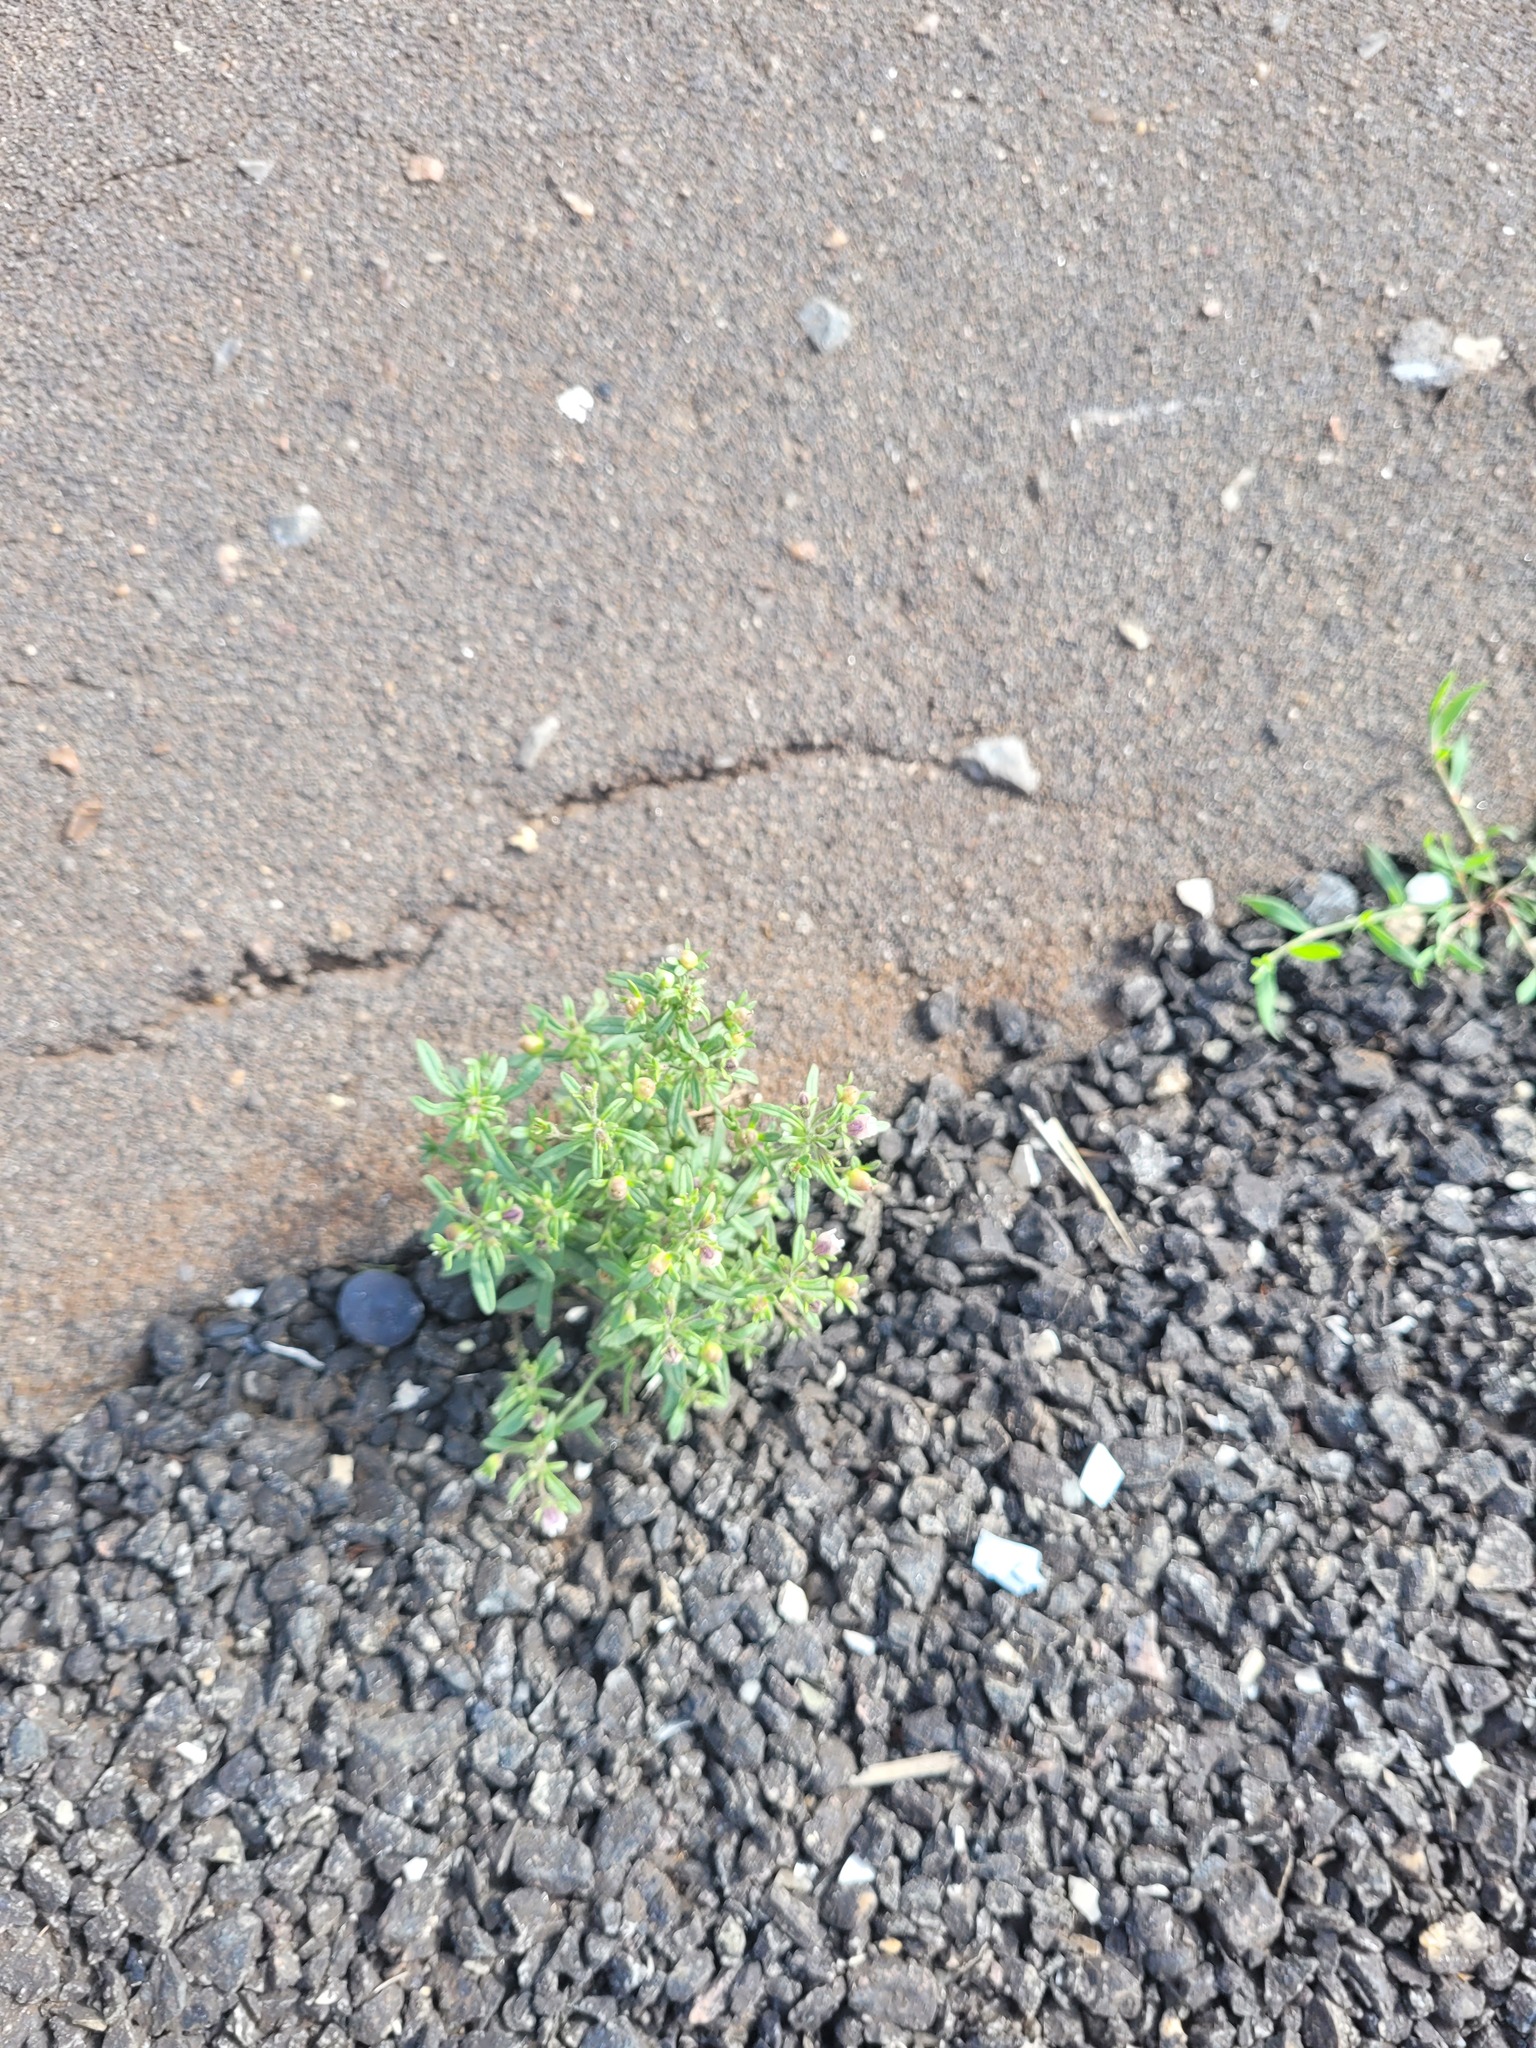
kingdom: Plantae
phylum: Tracheophyta
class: Magnoliopsida
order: Lamiales
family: Plantaginaceae
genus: Chaenorhinum
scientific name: Chaenorhinum minus
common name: Dwarf snapdragon
